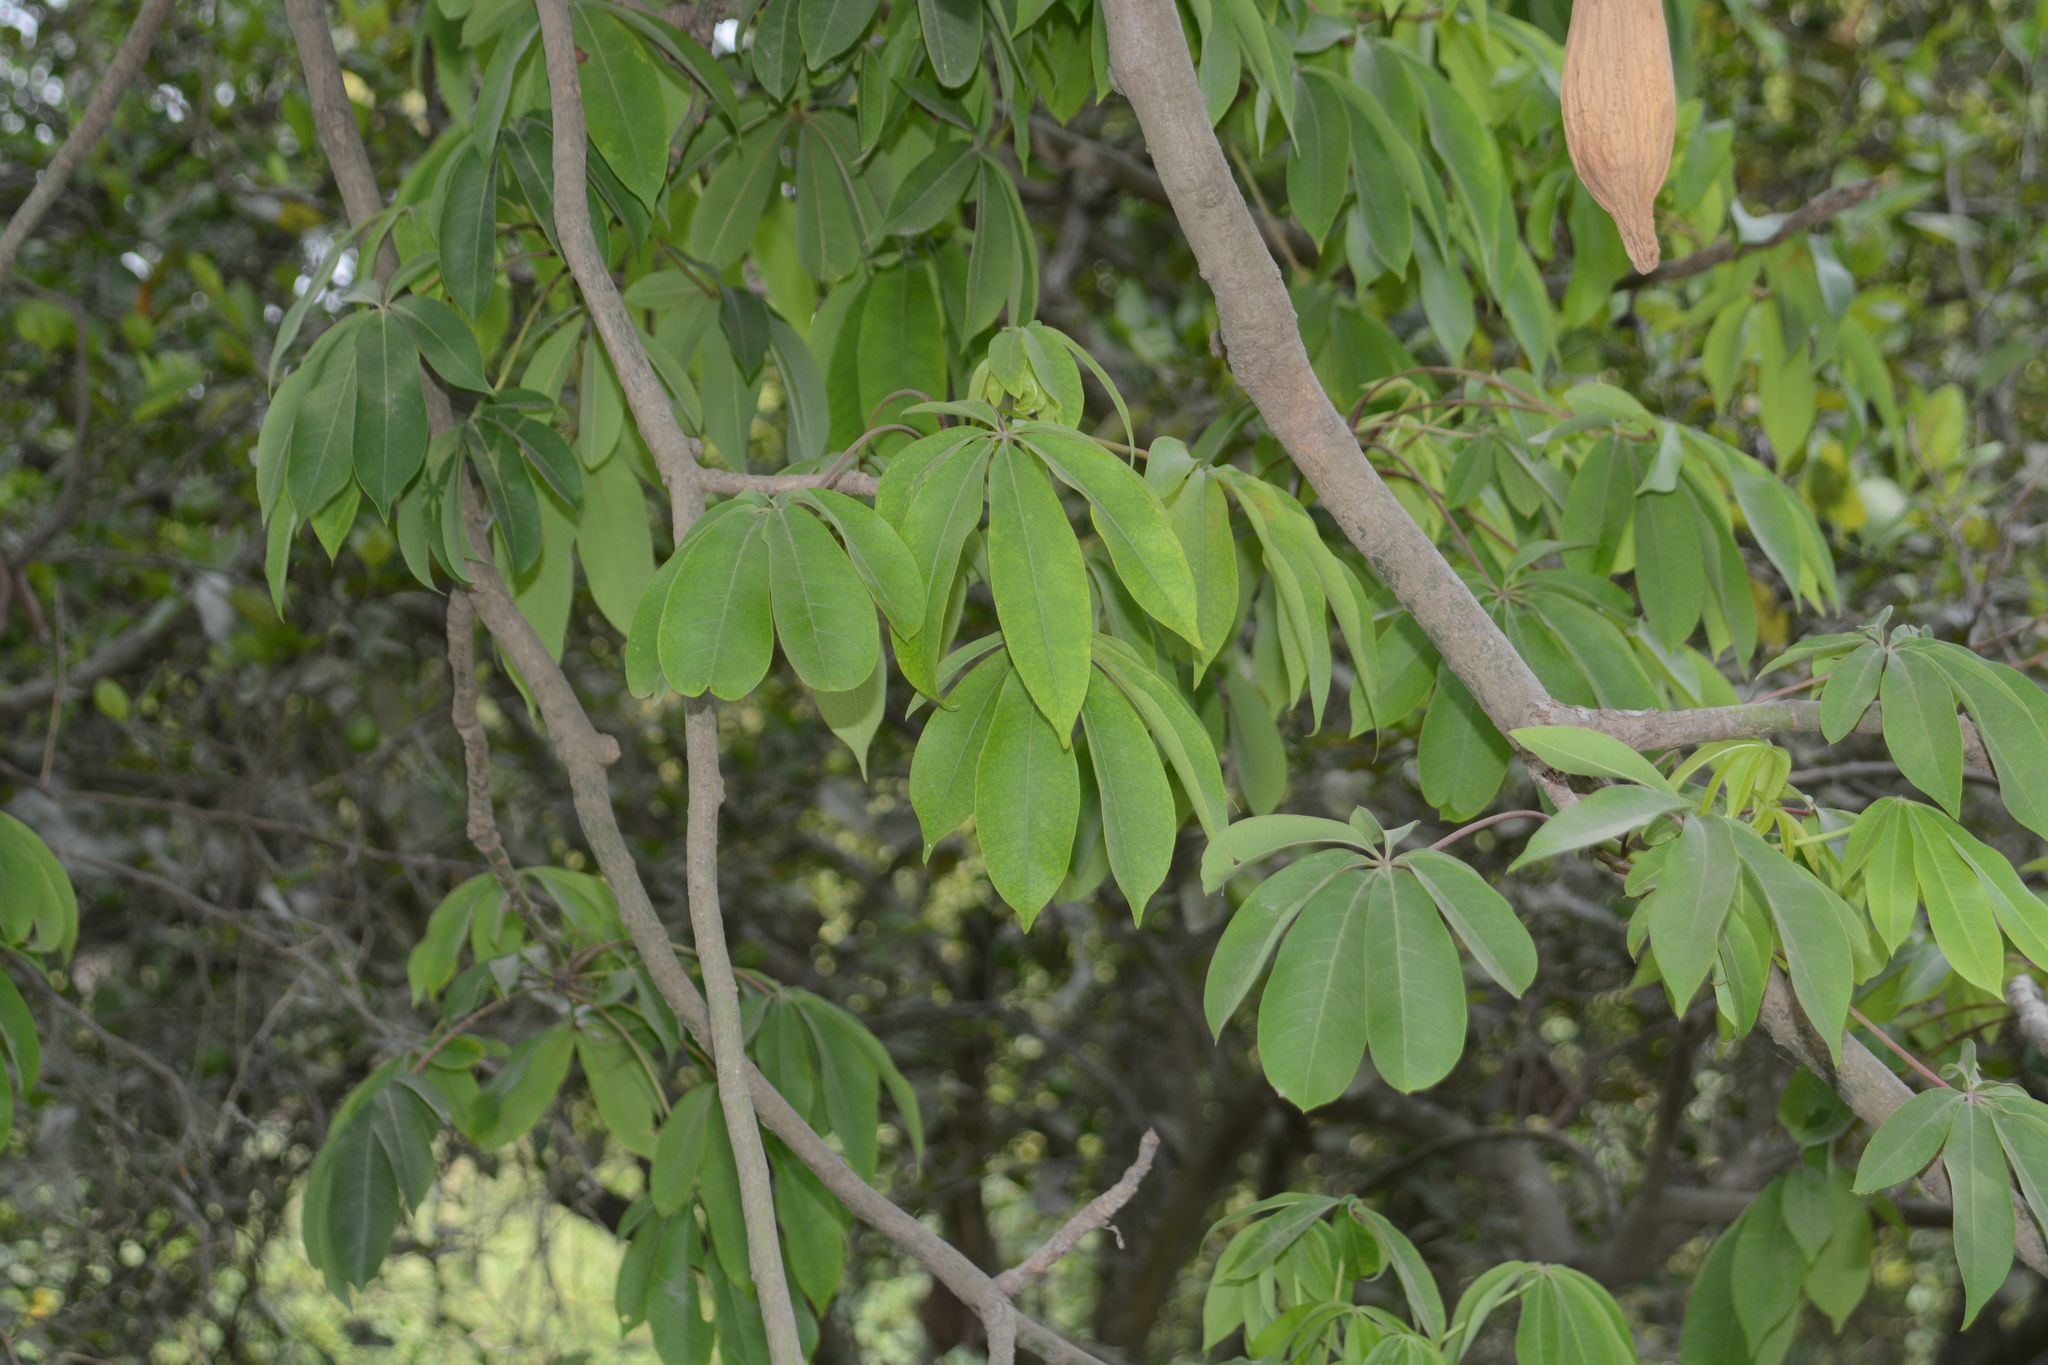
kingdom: Plantae
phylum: Tracheophyta
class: Magnoliopsida
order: Malvales
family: Malvaceae
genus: Ceiba
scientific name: Ceiba pentandra
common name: Kapok
